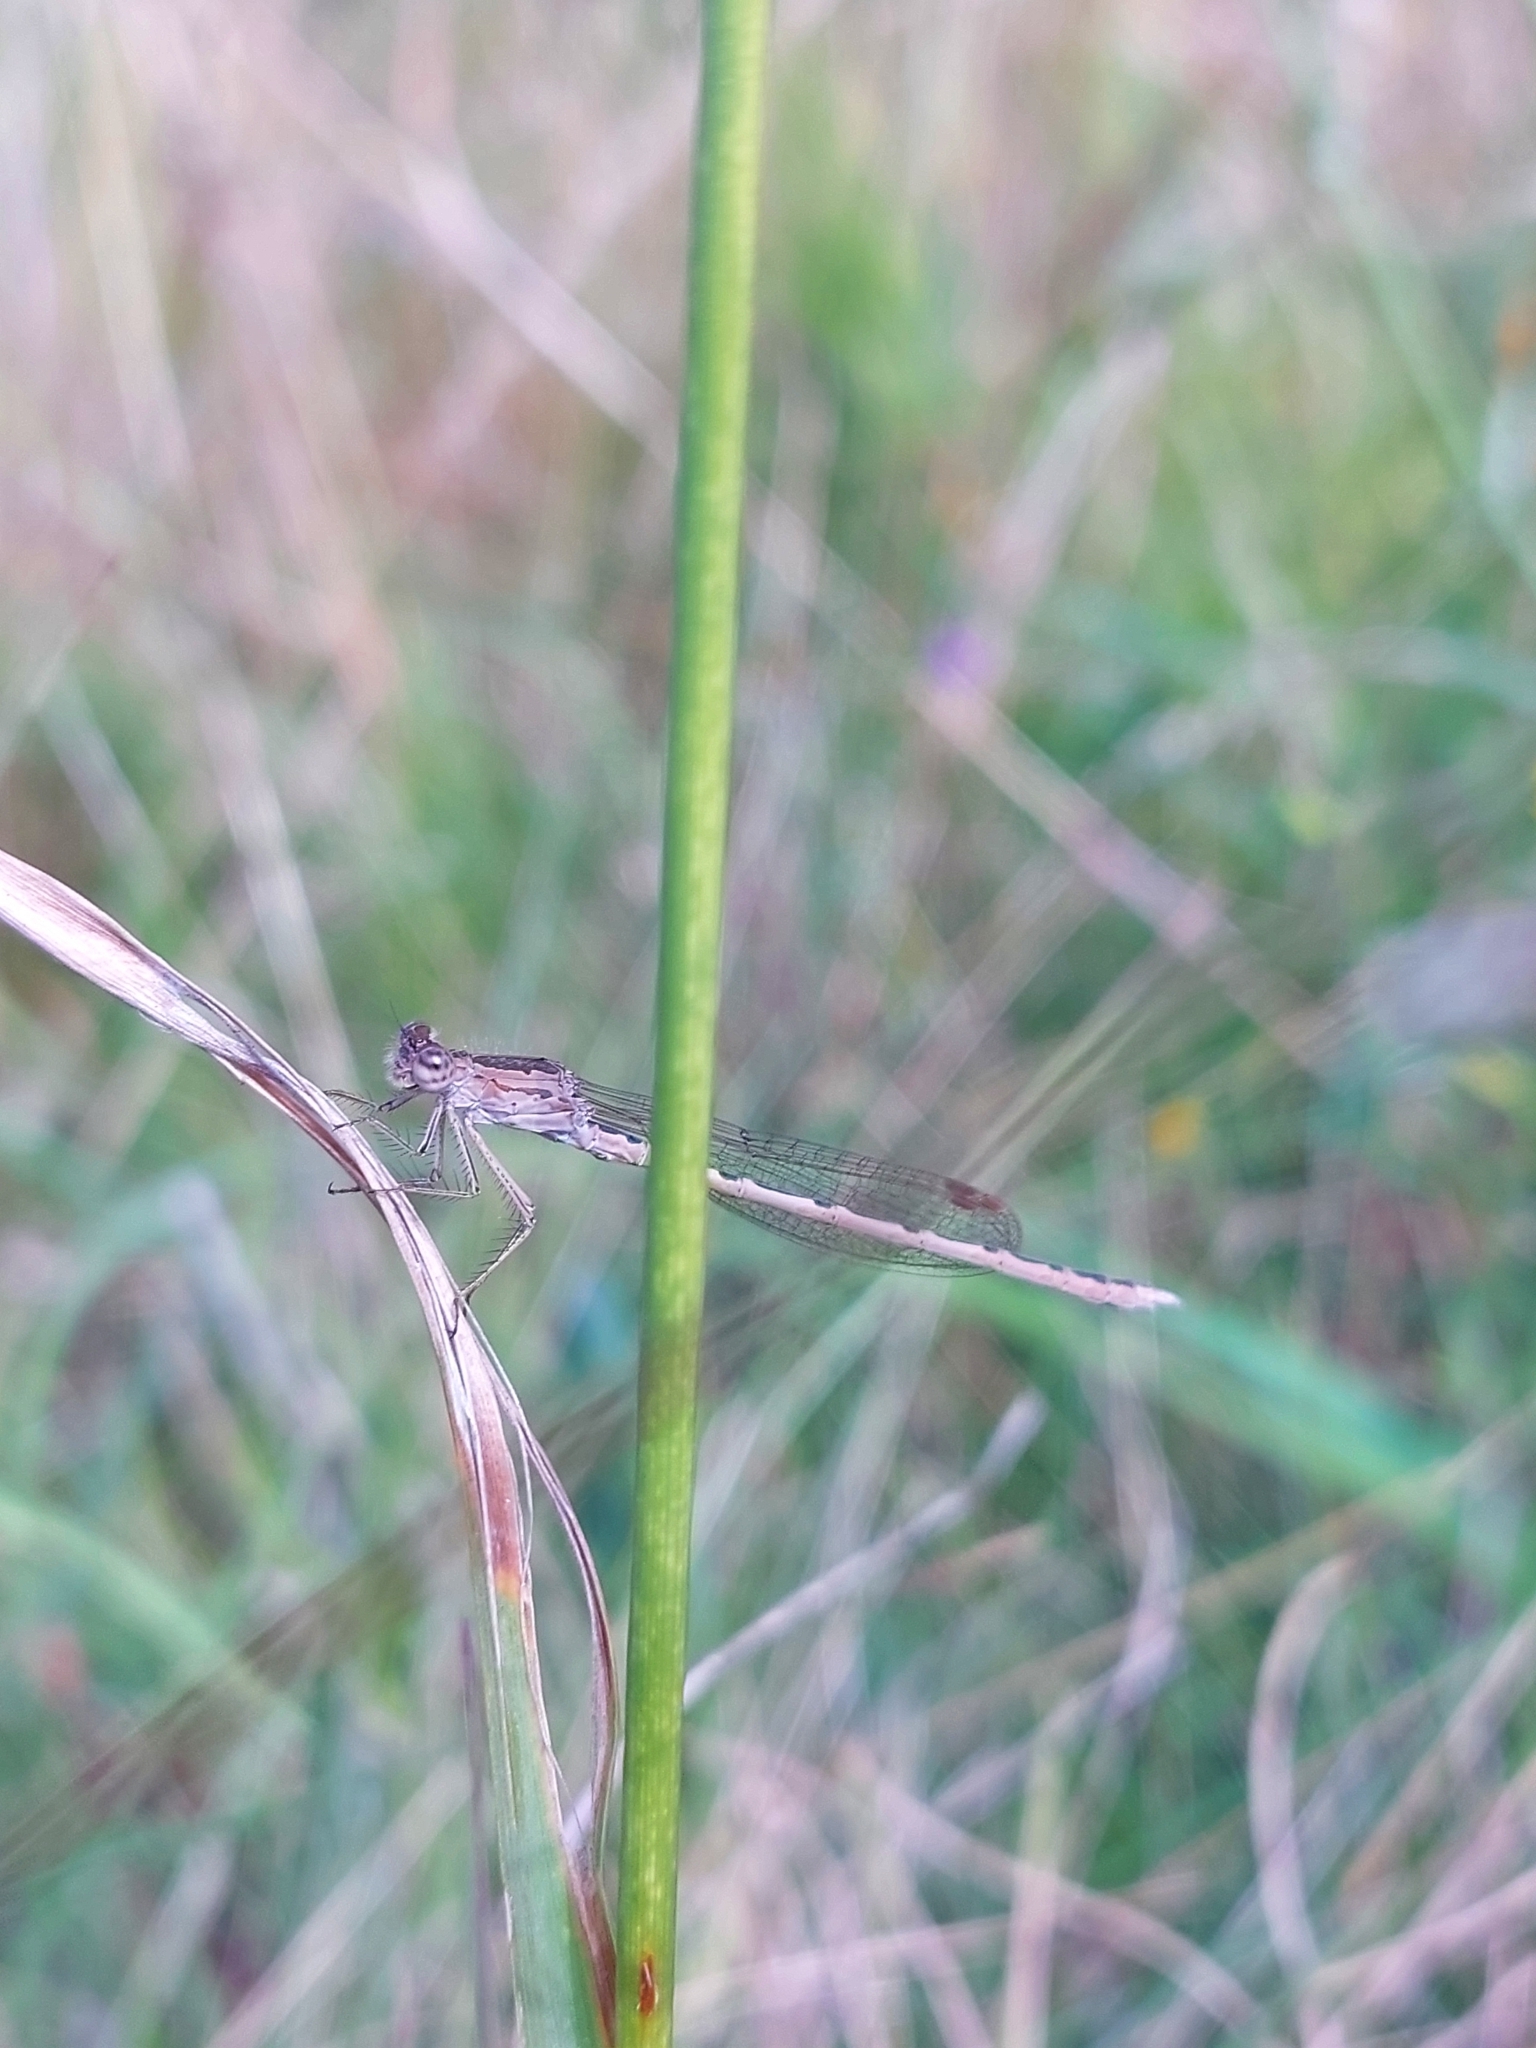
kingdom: Animalia
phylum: Arthropoda
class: Insecta
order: Odonata
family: Lestidae
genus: Sympecma
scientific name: Sympecma paedisca
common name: Siberian winter damsel
